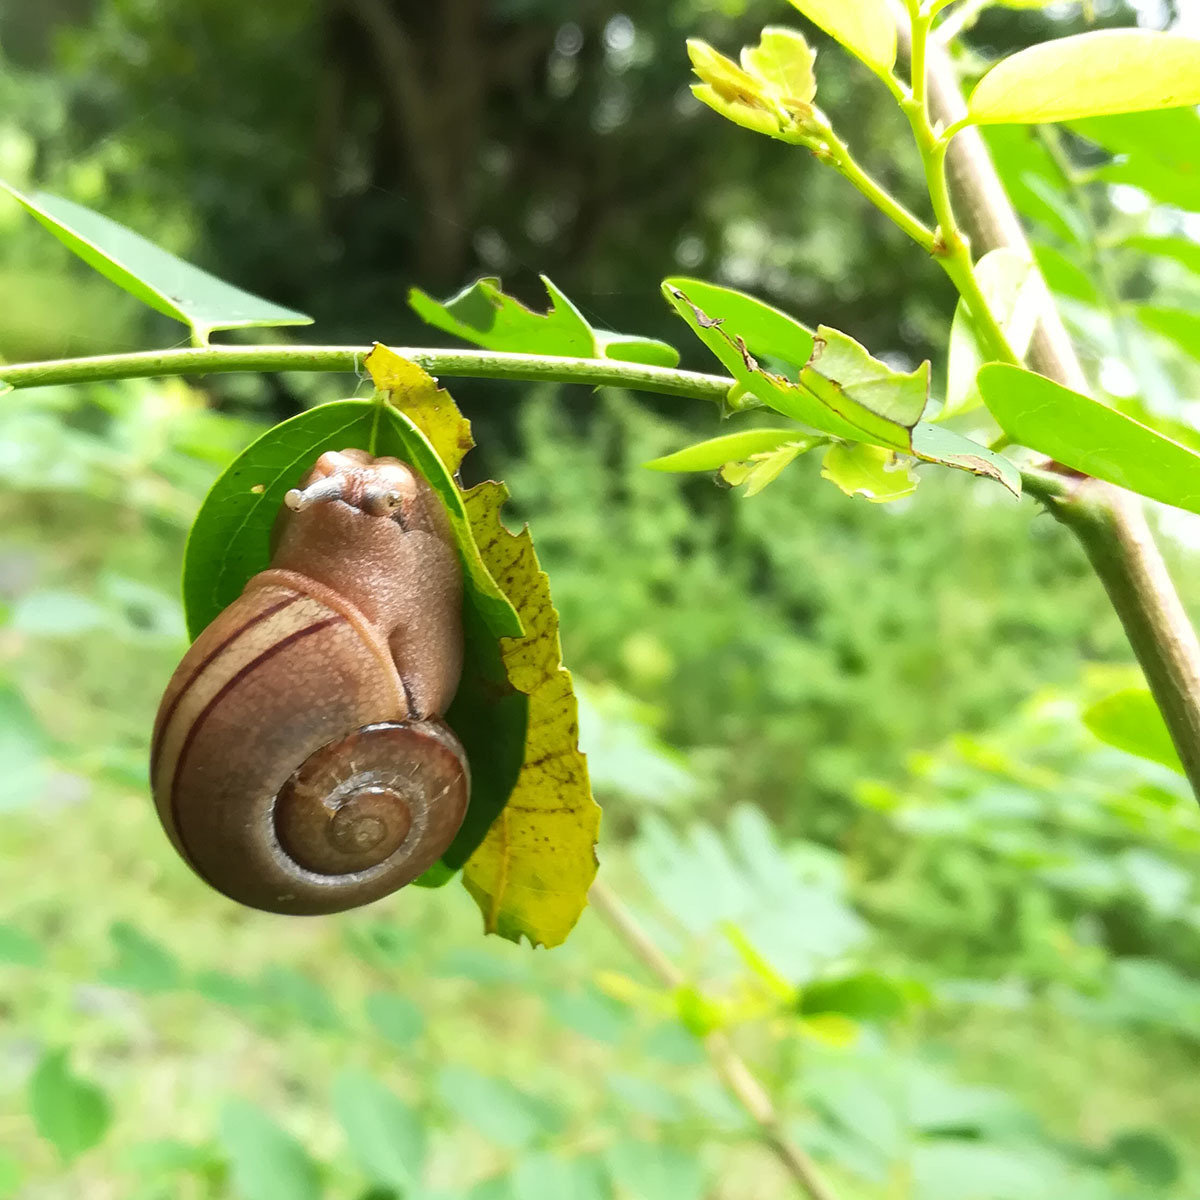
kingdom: Animalia
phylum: Mollusca
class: Gastropoda
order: Stylommatophora
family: Ariophantidae
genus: Ariophanta
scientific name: Ariophanta exilis
